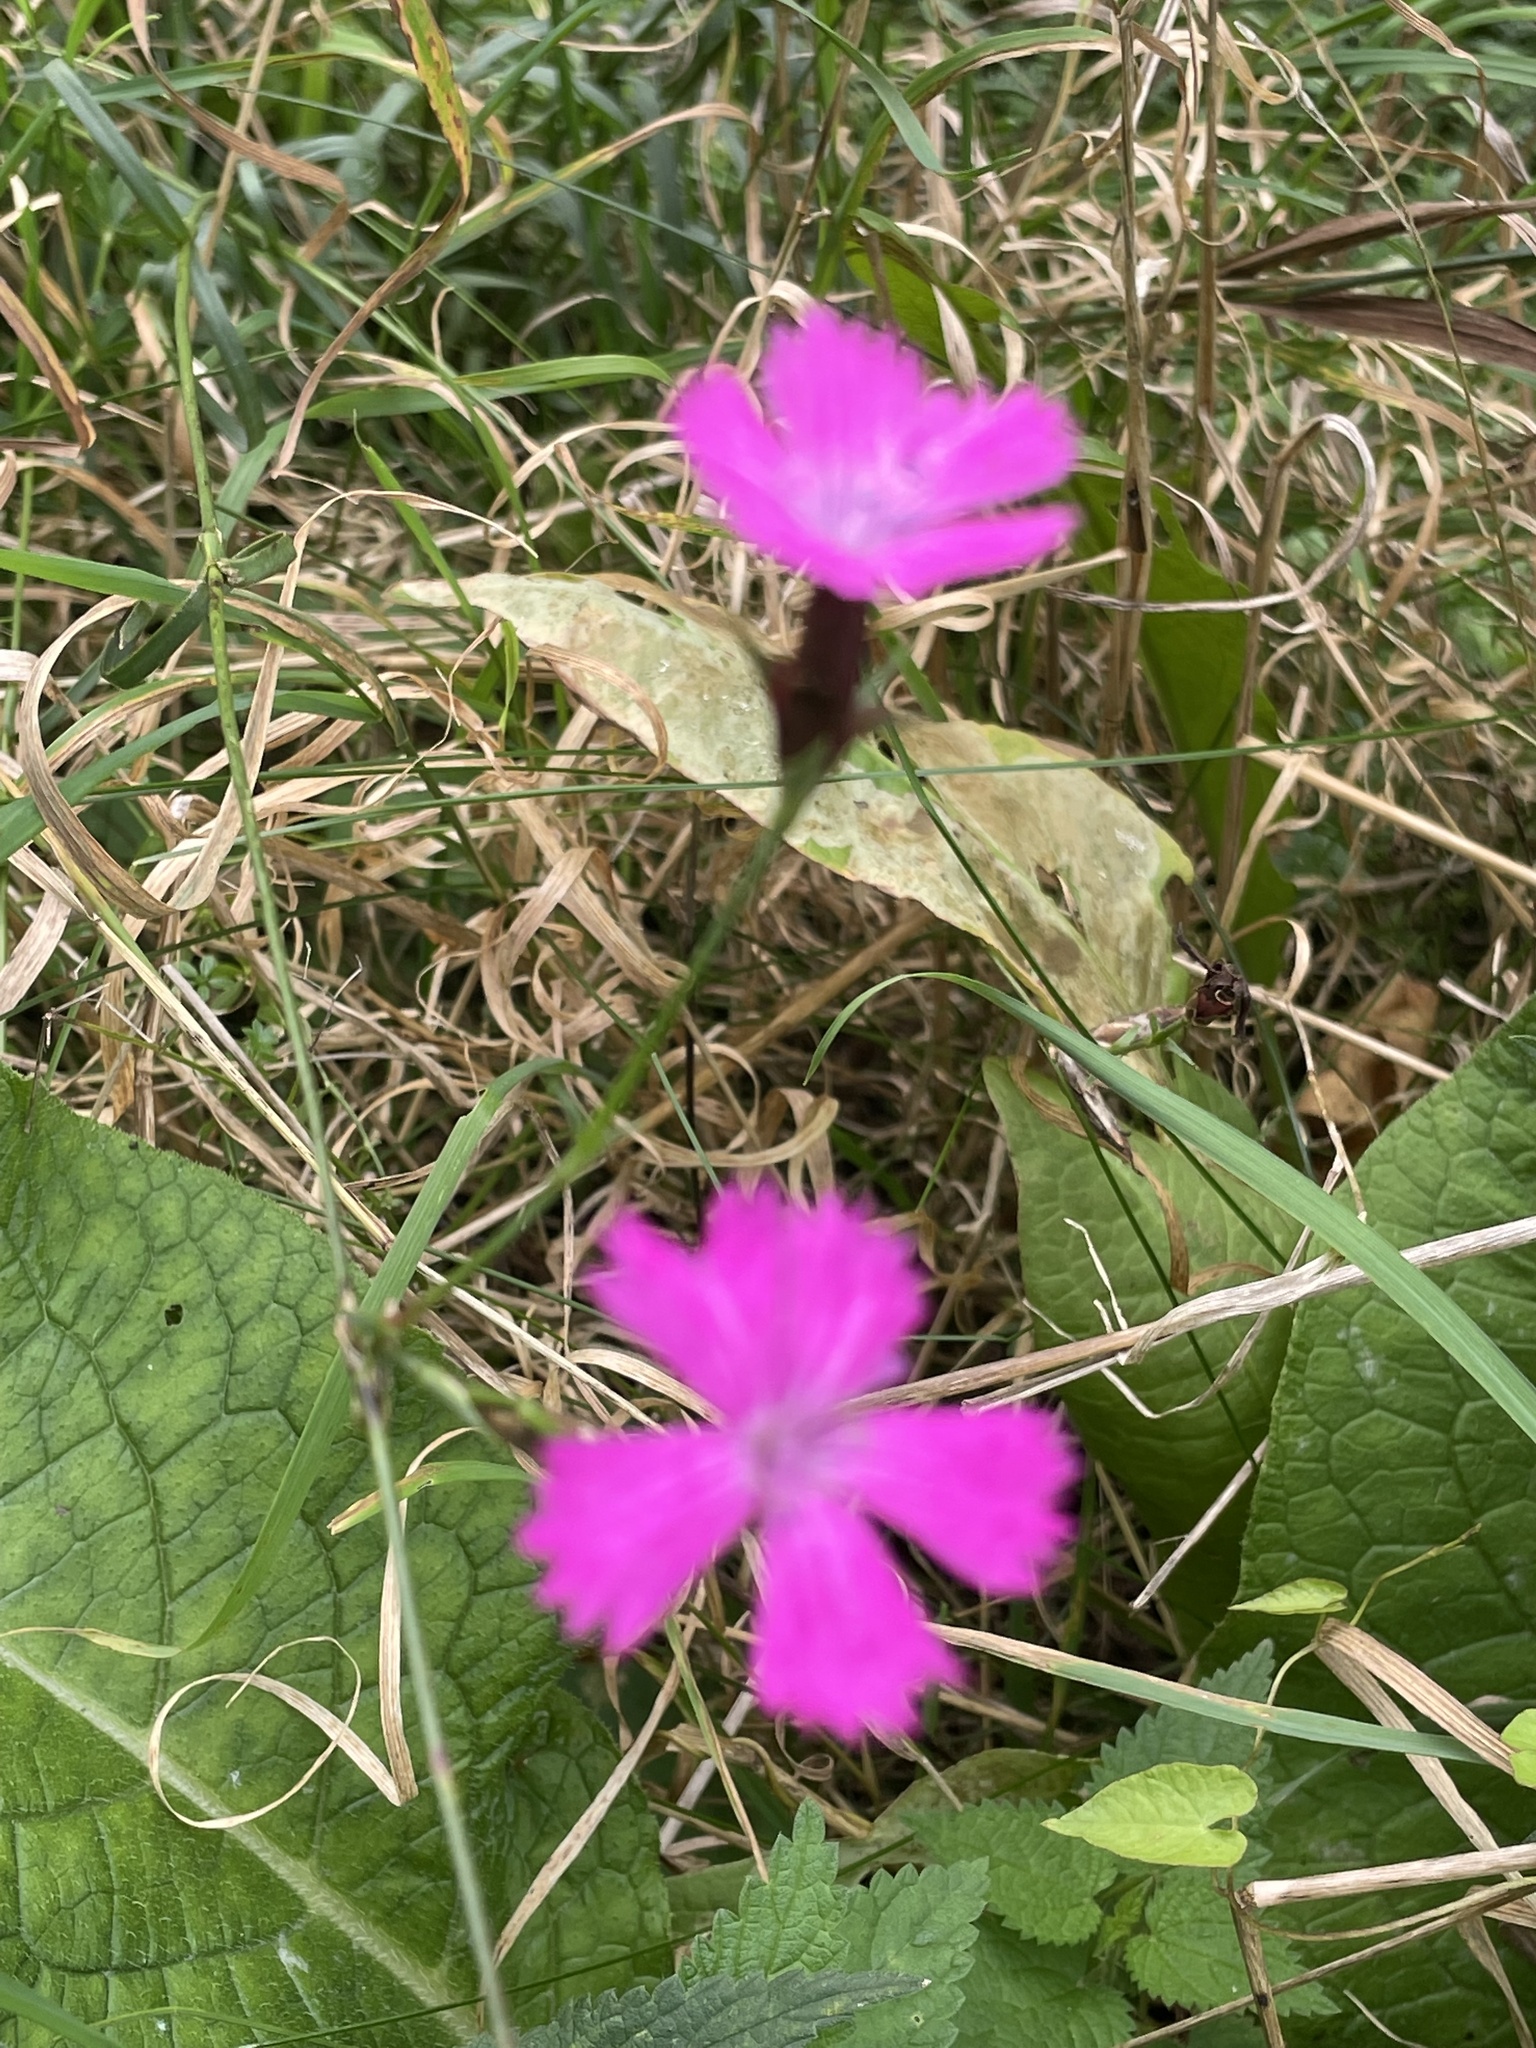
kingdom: Plantae
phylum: Tracheophyta
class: Magnoliopsida
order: Caryophyllales
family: Caryophyllaceae
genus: Dianthus
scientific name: Dianthus carthusianorum
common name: Carthusian pink
